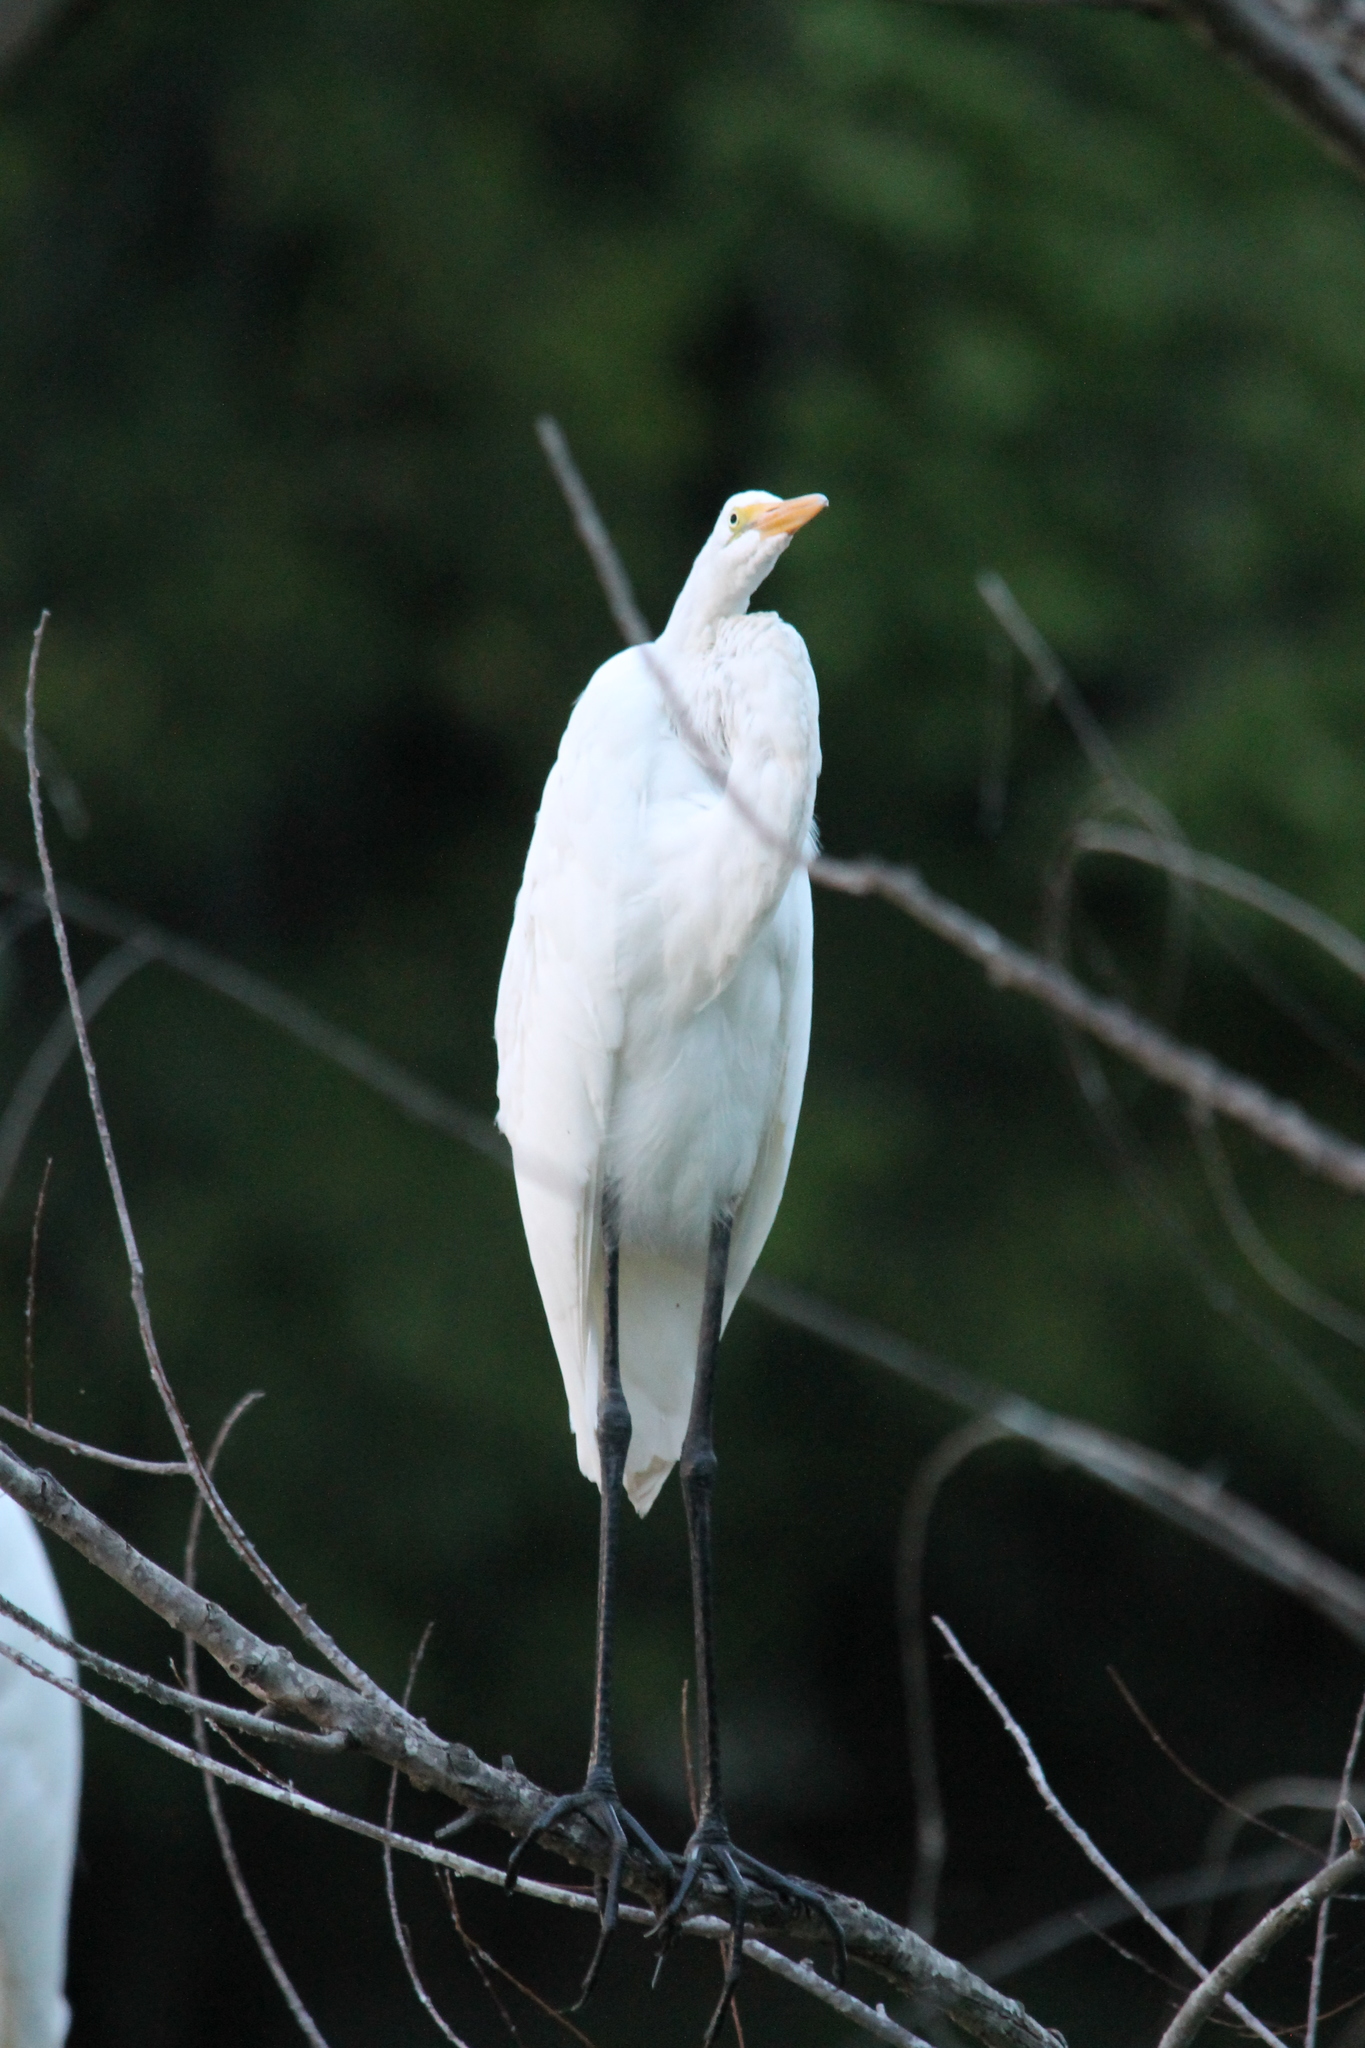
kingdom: Animalia
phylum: Chordata
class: Aves
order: Pelecaniformes
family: Ardeidae
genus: Ardea
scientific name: Ardea alba
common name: Great egret
